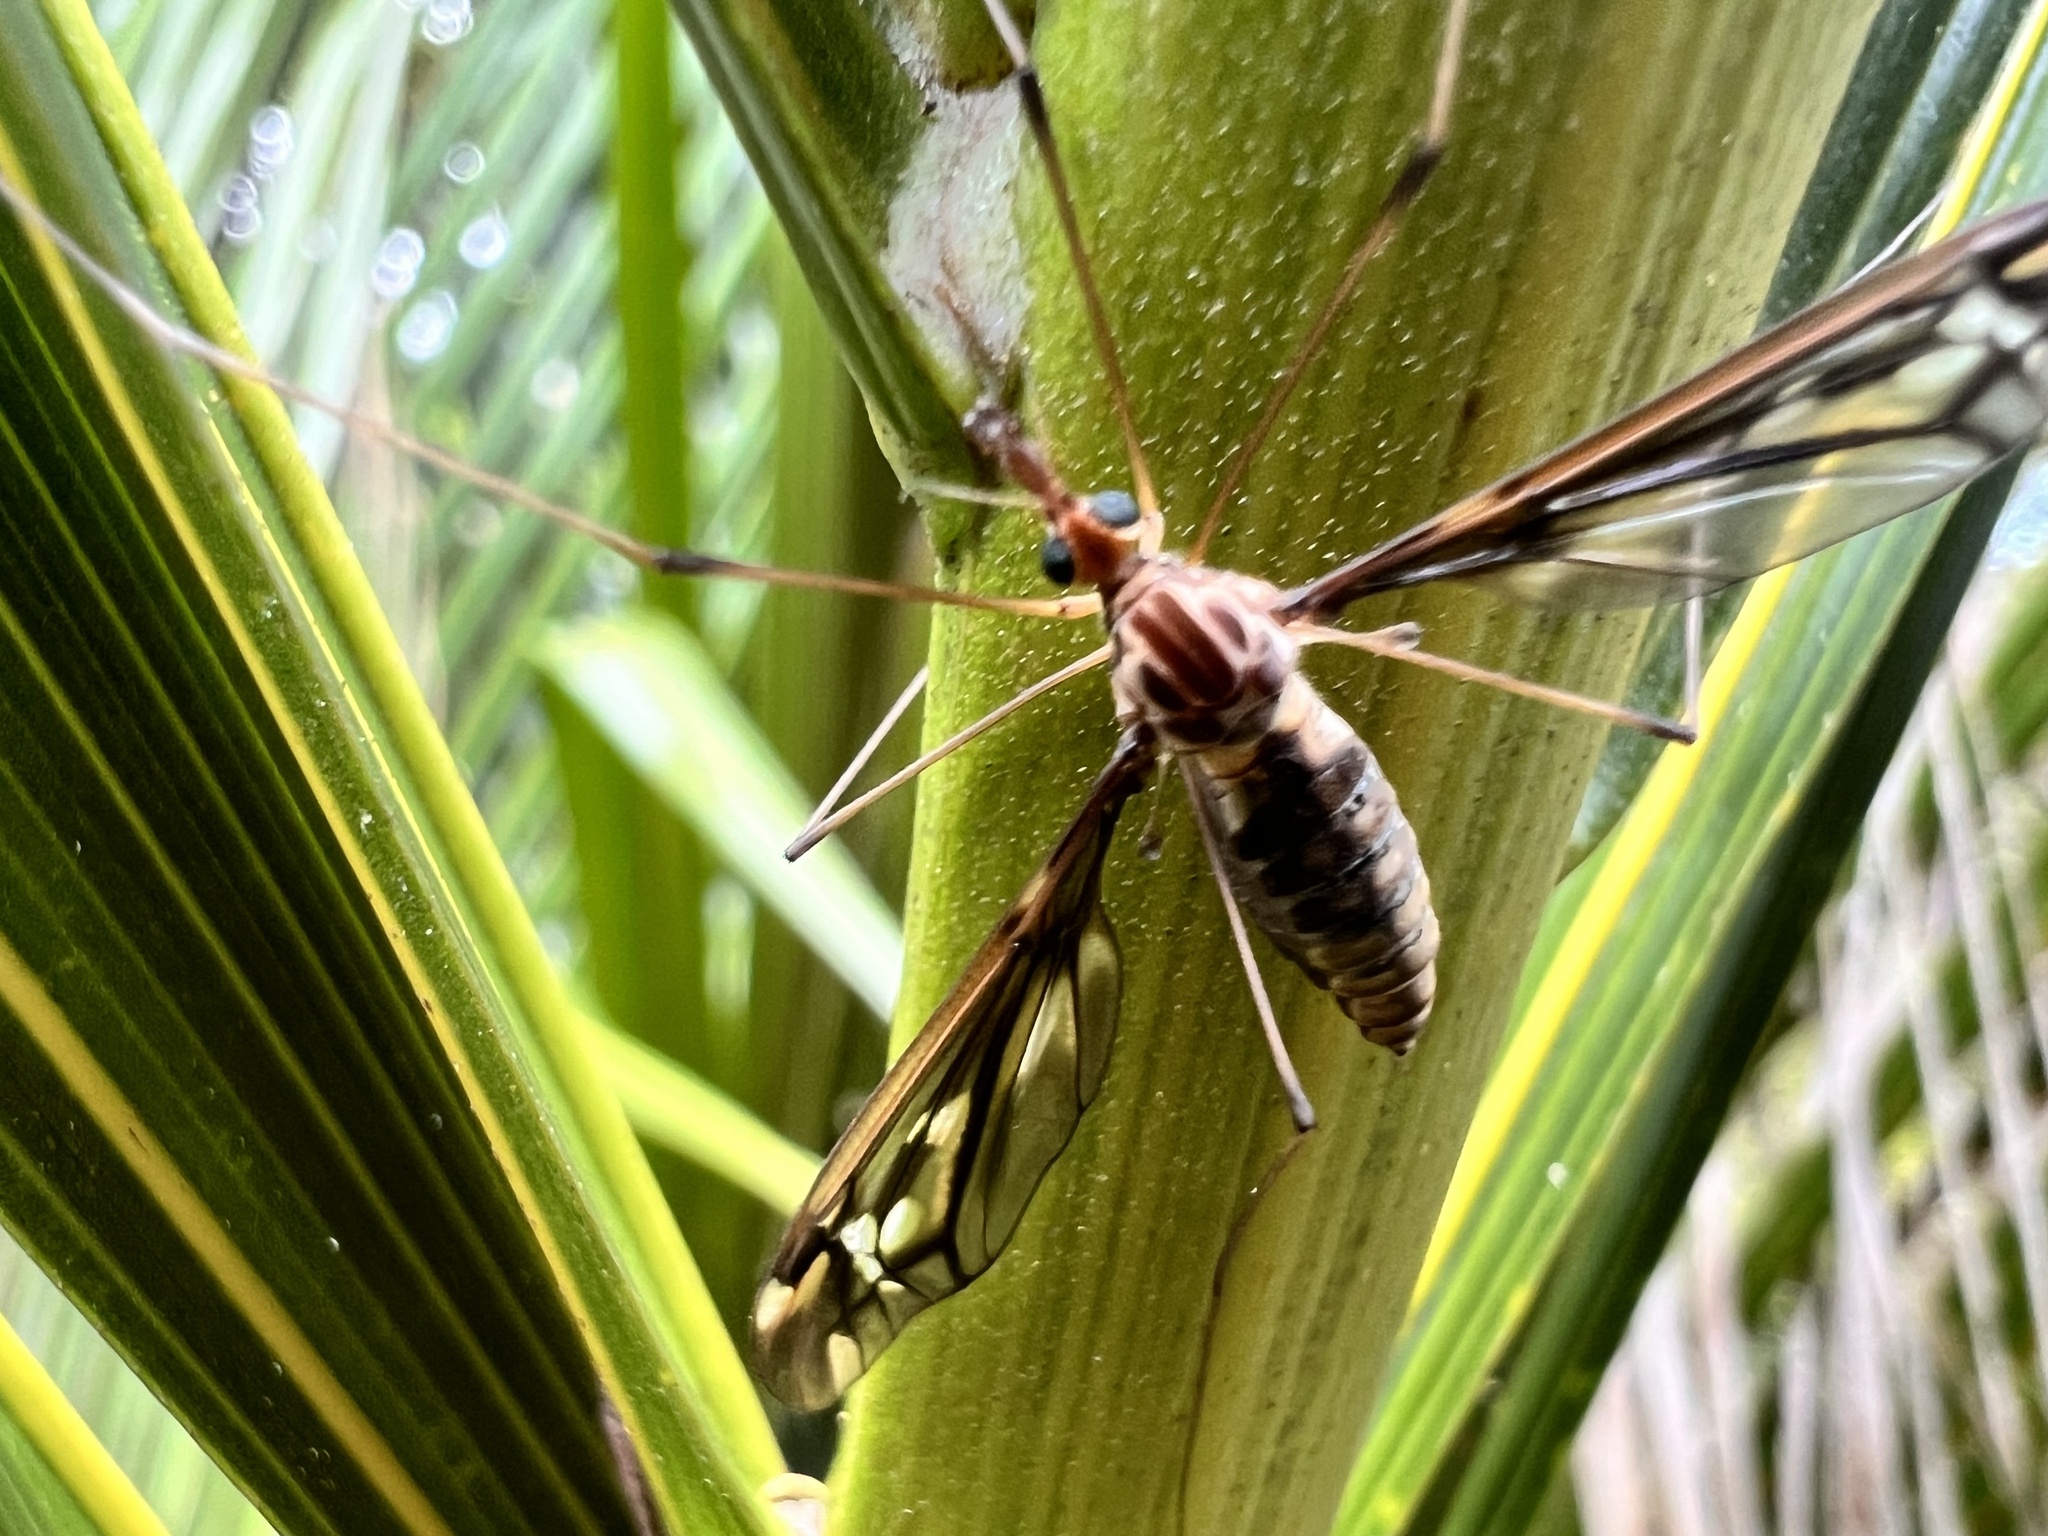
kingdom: Animalia
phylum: Arthropoda
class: Insecta
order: Diptera
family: Tipulidae
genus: Leptotarsus
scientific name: Leptotarsus huttoni
